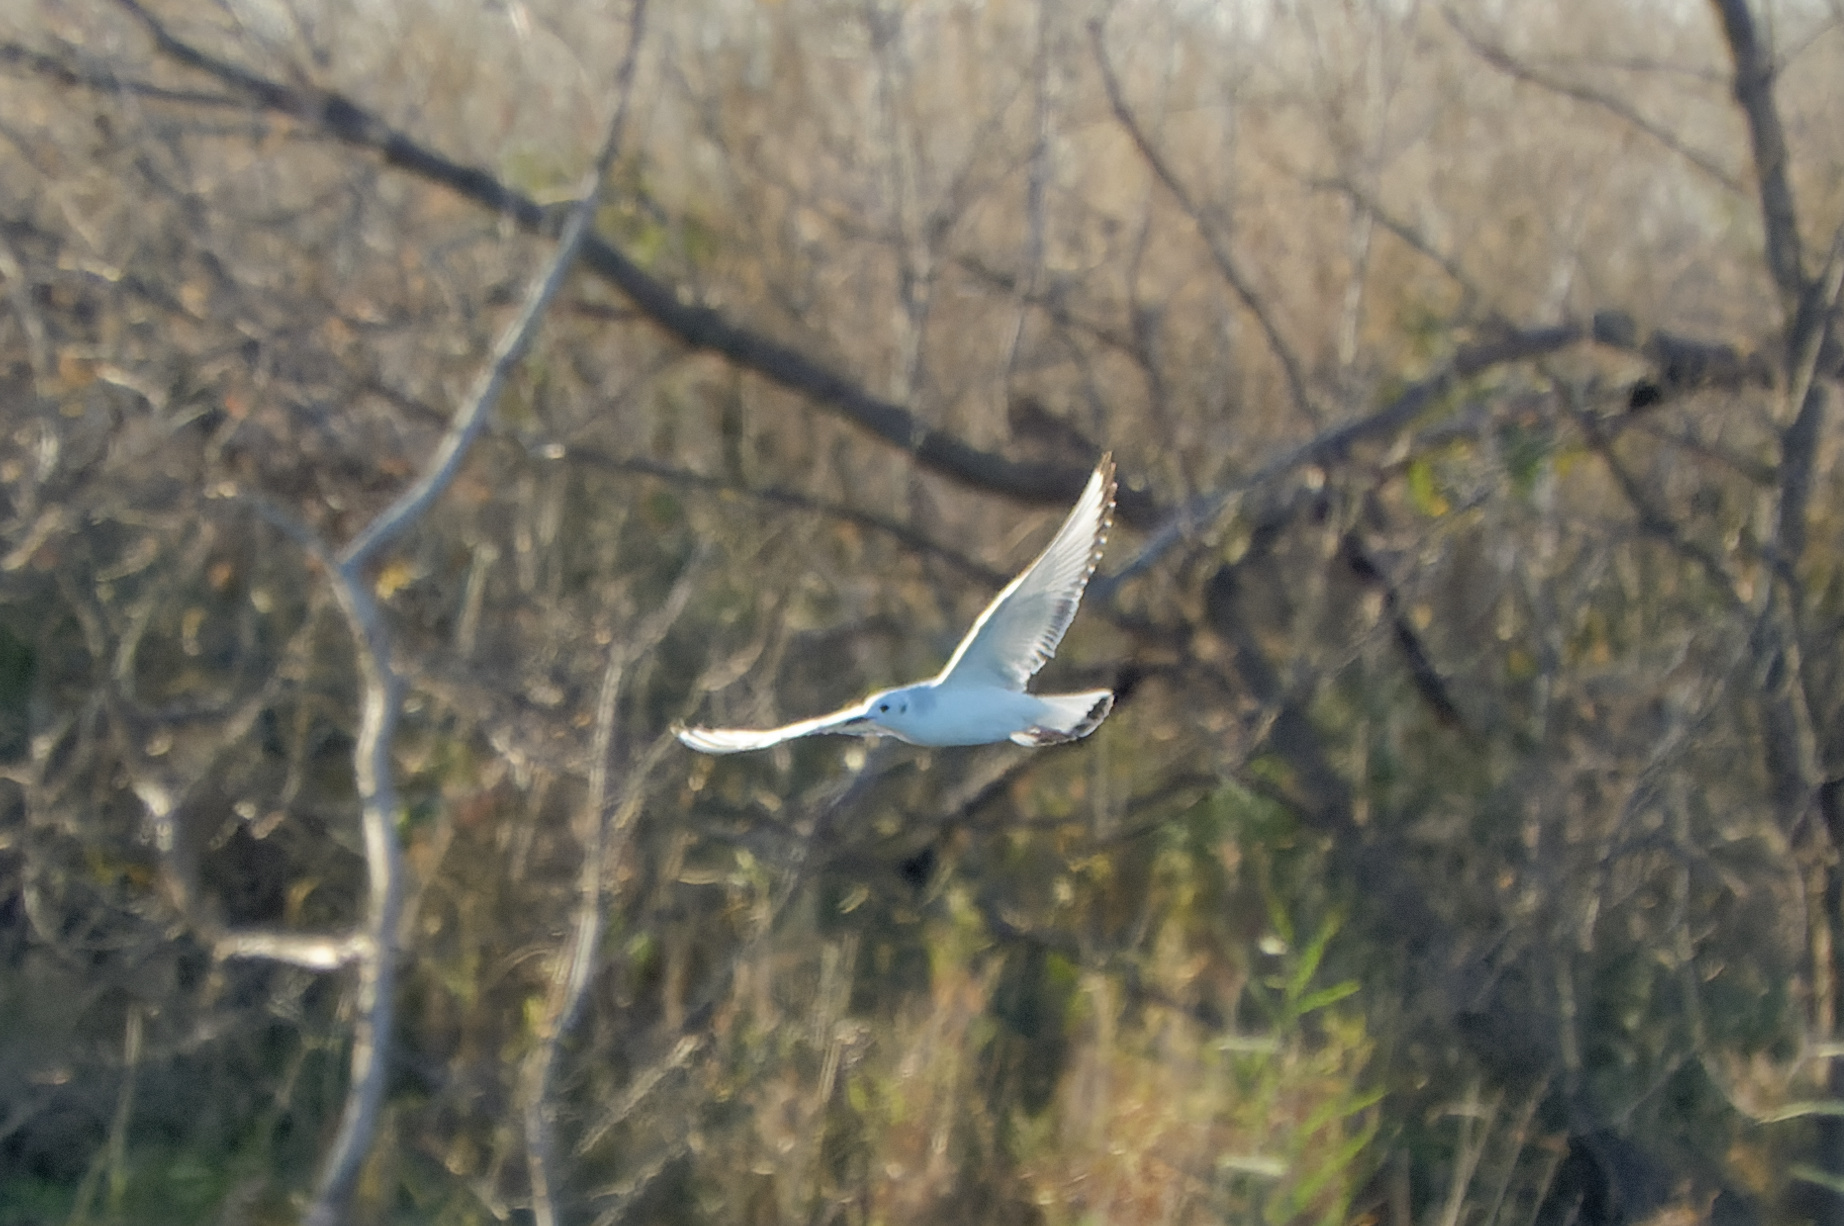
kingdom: Animalia
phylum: Chordata
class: Aves
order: Charadriiformes
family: Laridae
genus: Chroicocephalus
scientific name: Chroicocephalus philadelphia
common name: Bonaparte's gull
